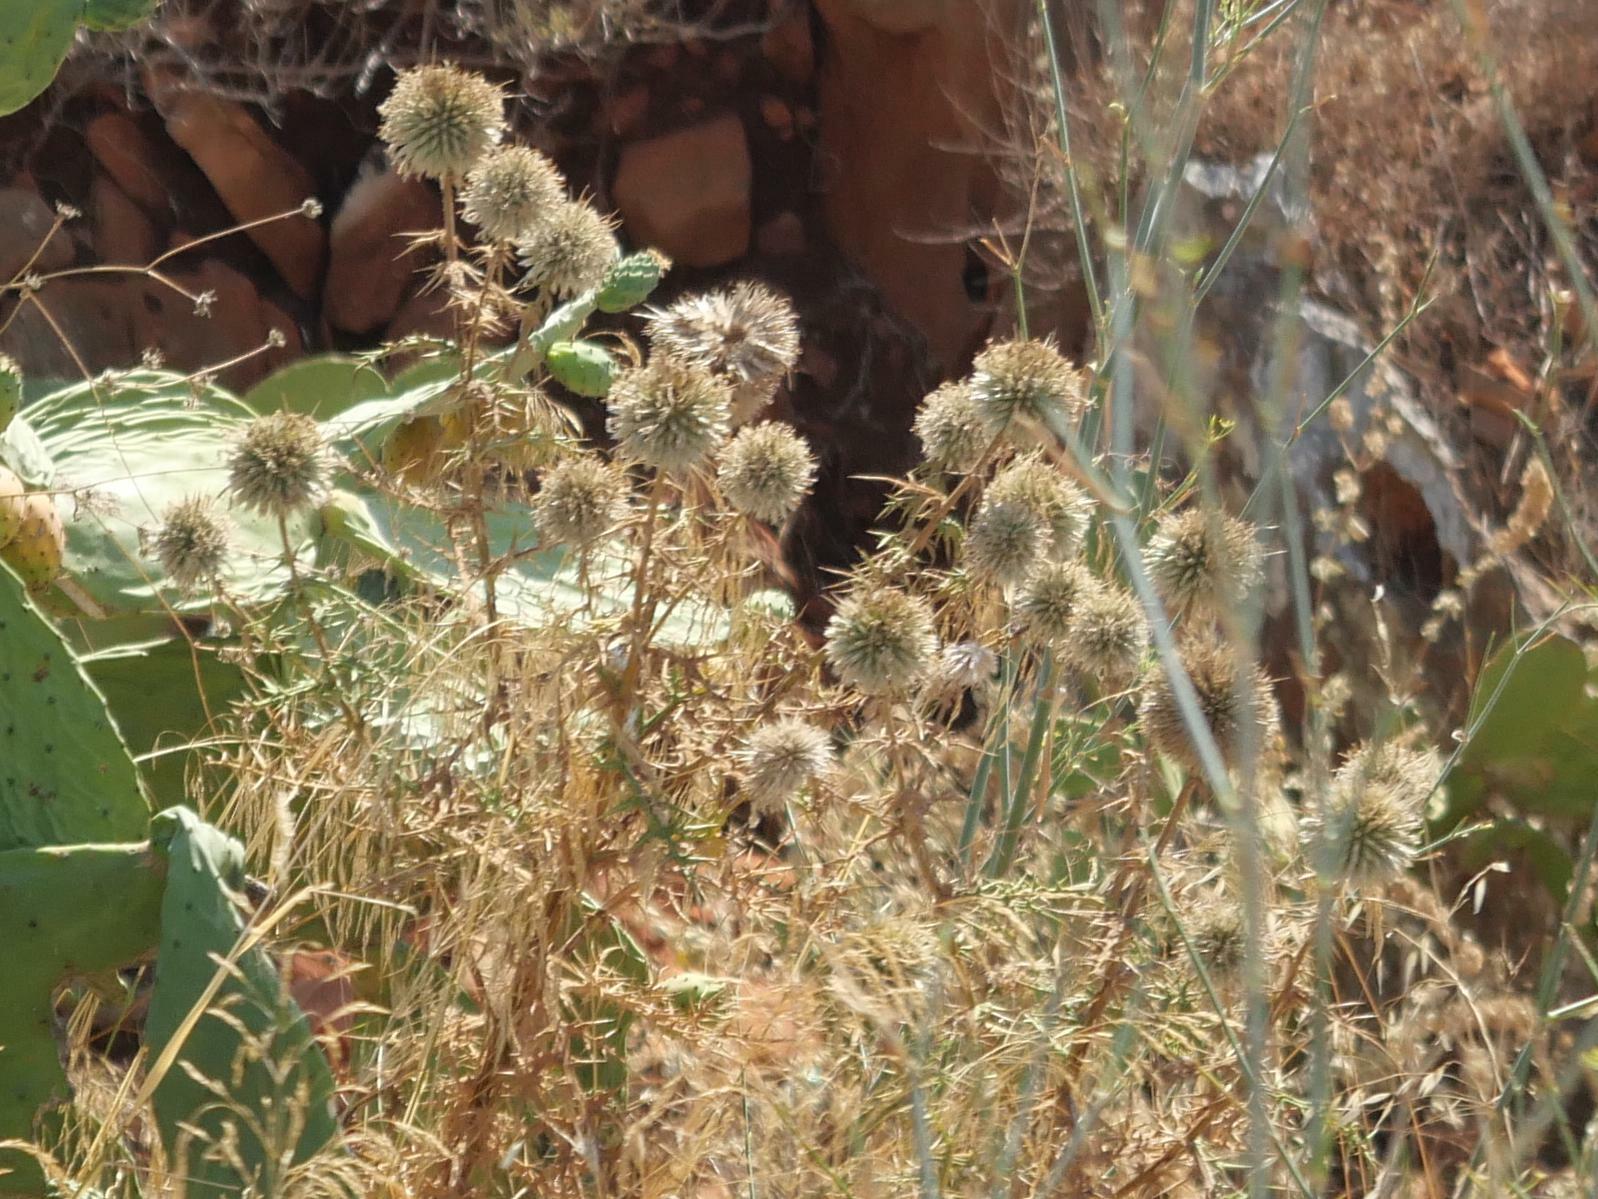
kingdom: Plantae
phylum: Tracheophyta
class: Magnoliopsida
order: Asterales
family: Asteraceae
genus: Echinops
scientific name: Echinops spinosissimus
